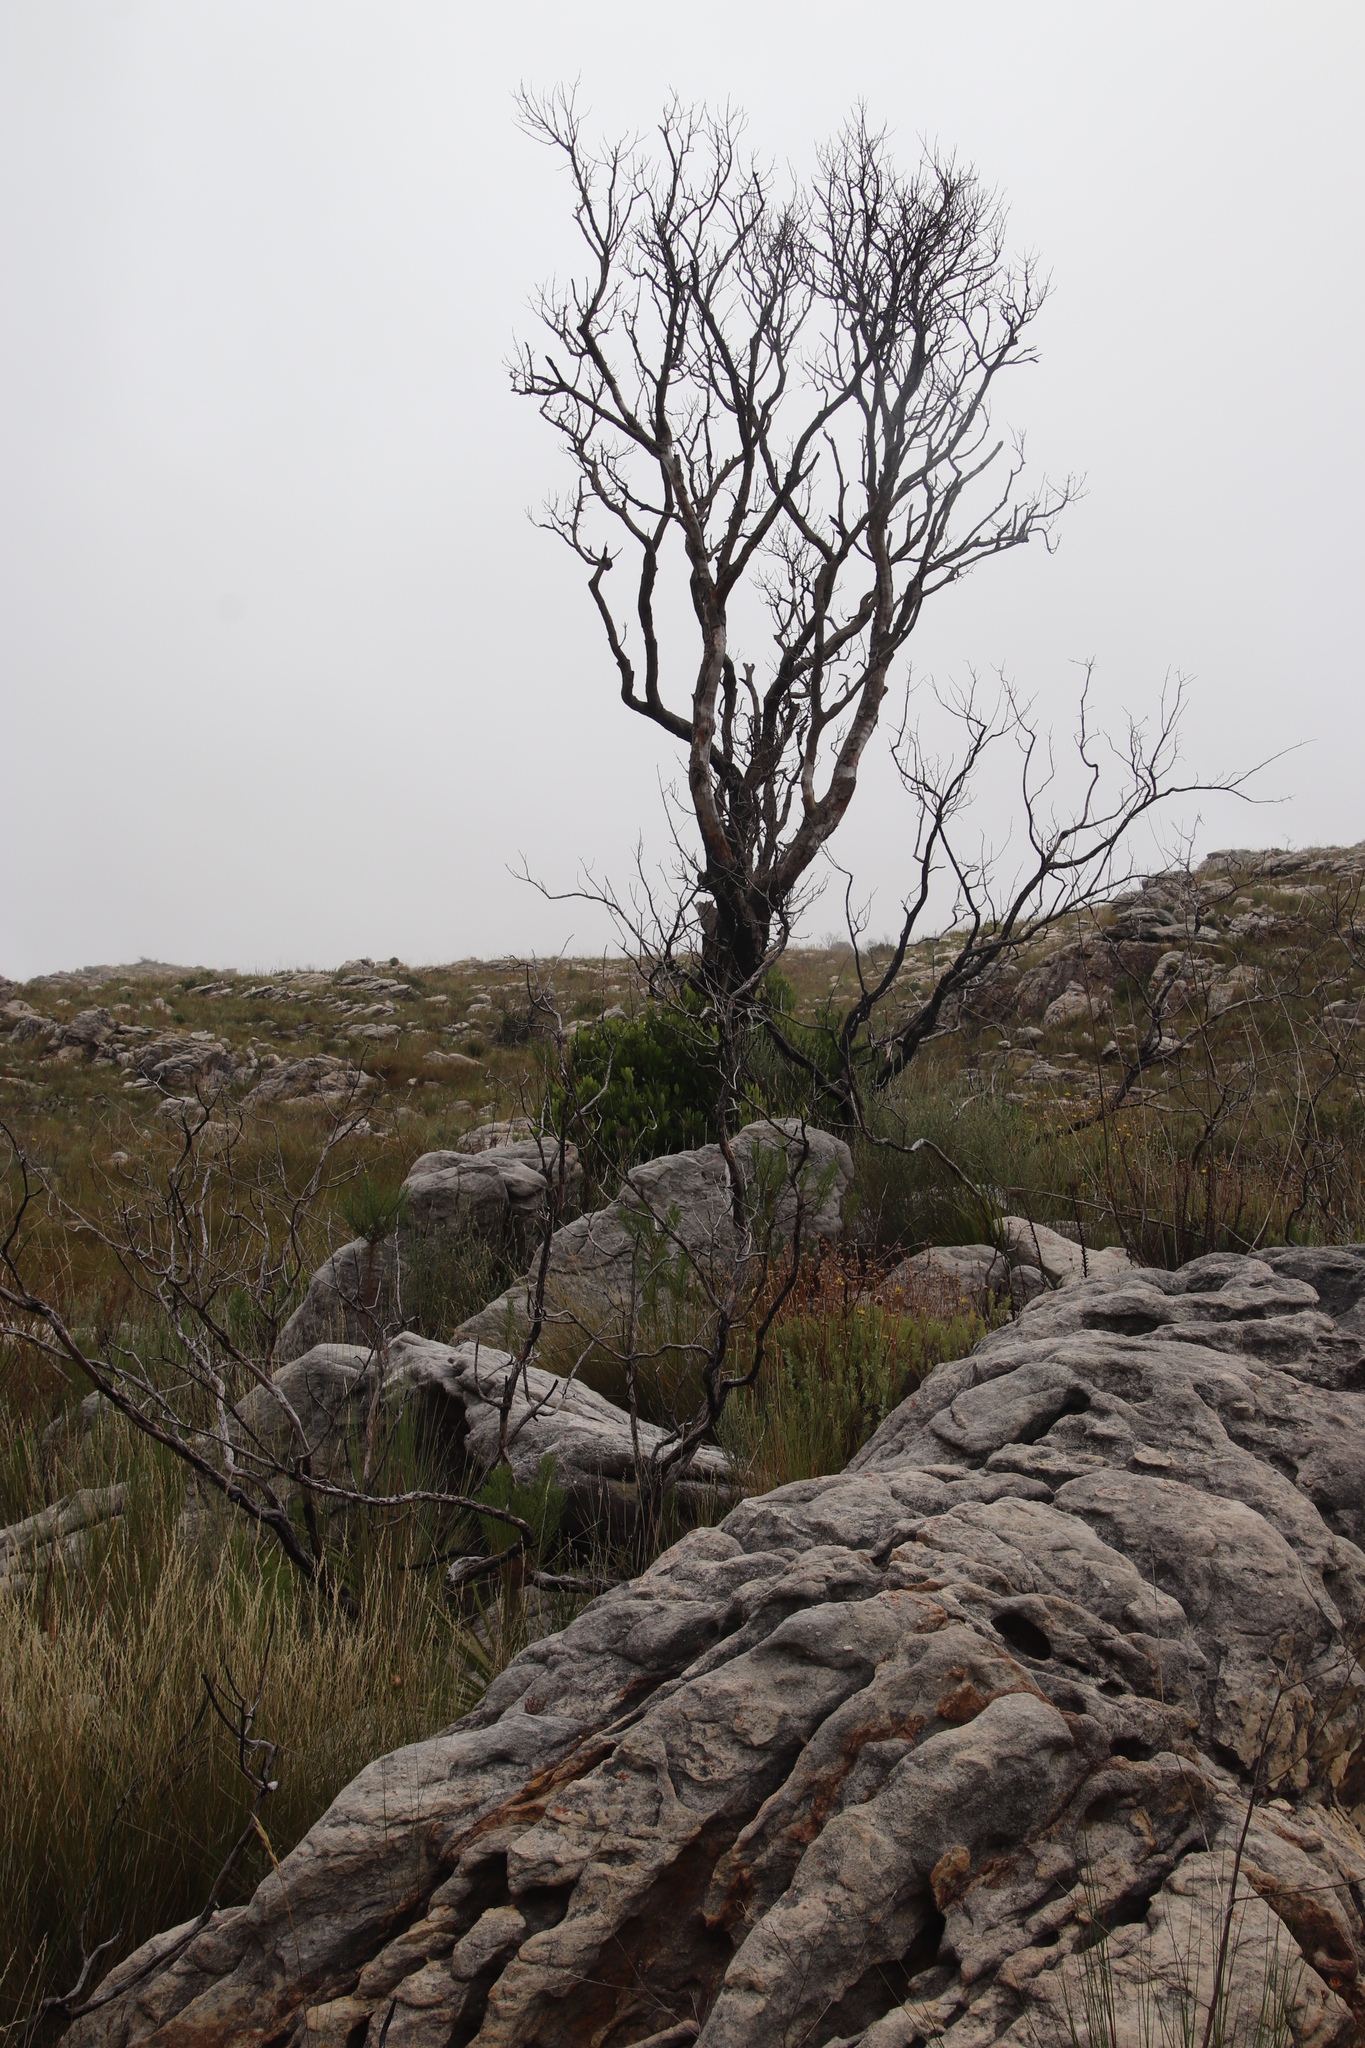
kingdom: Plantae
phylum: Tracheophyta
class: Magnoliopsida
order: Celastrales
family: Celastraceae
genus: Gymnosporia
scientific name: Gymnosporia laurina
